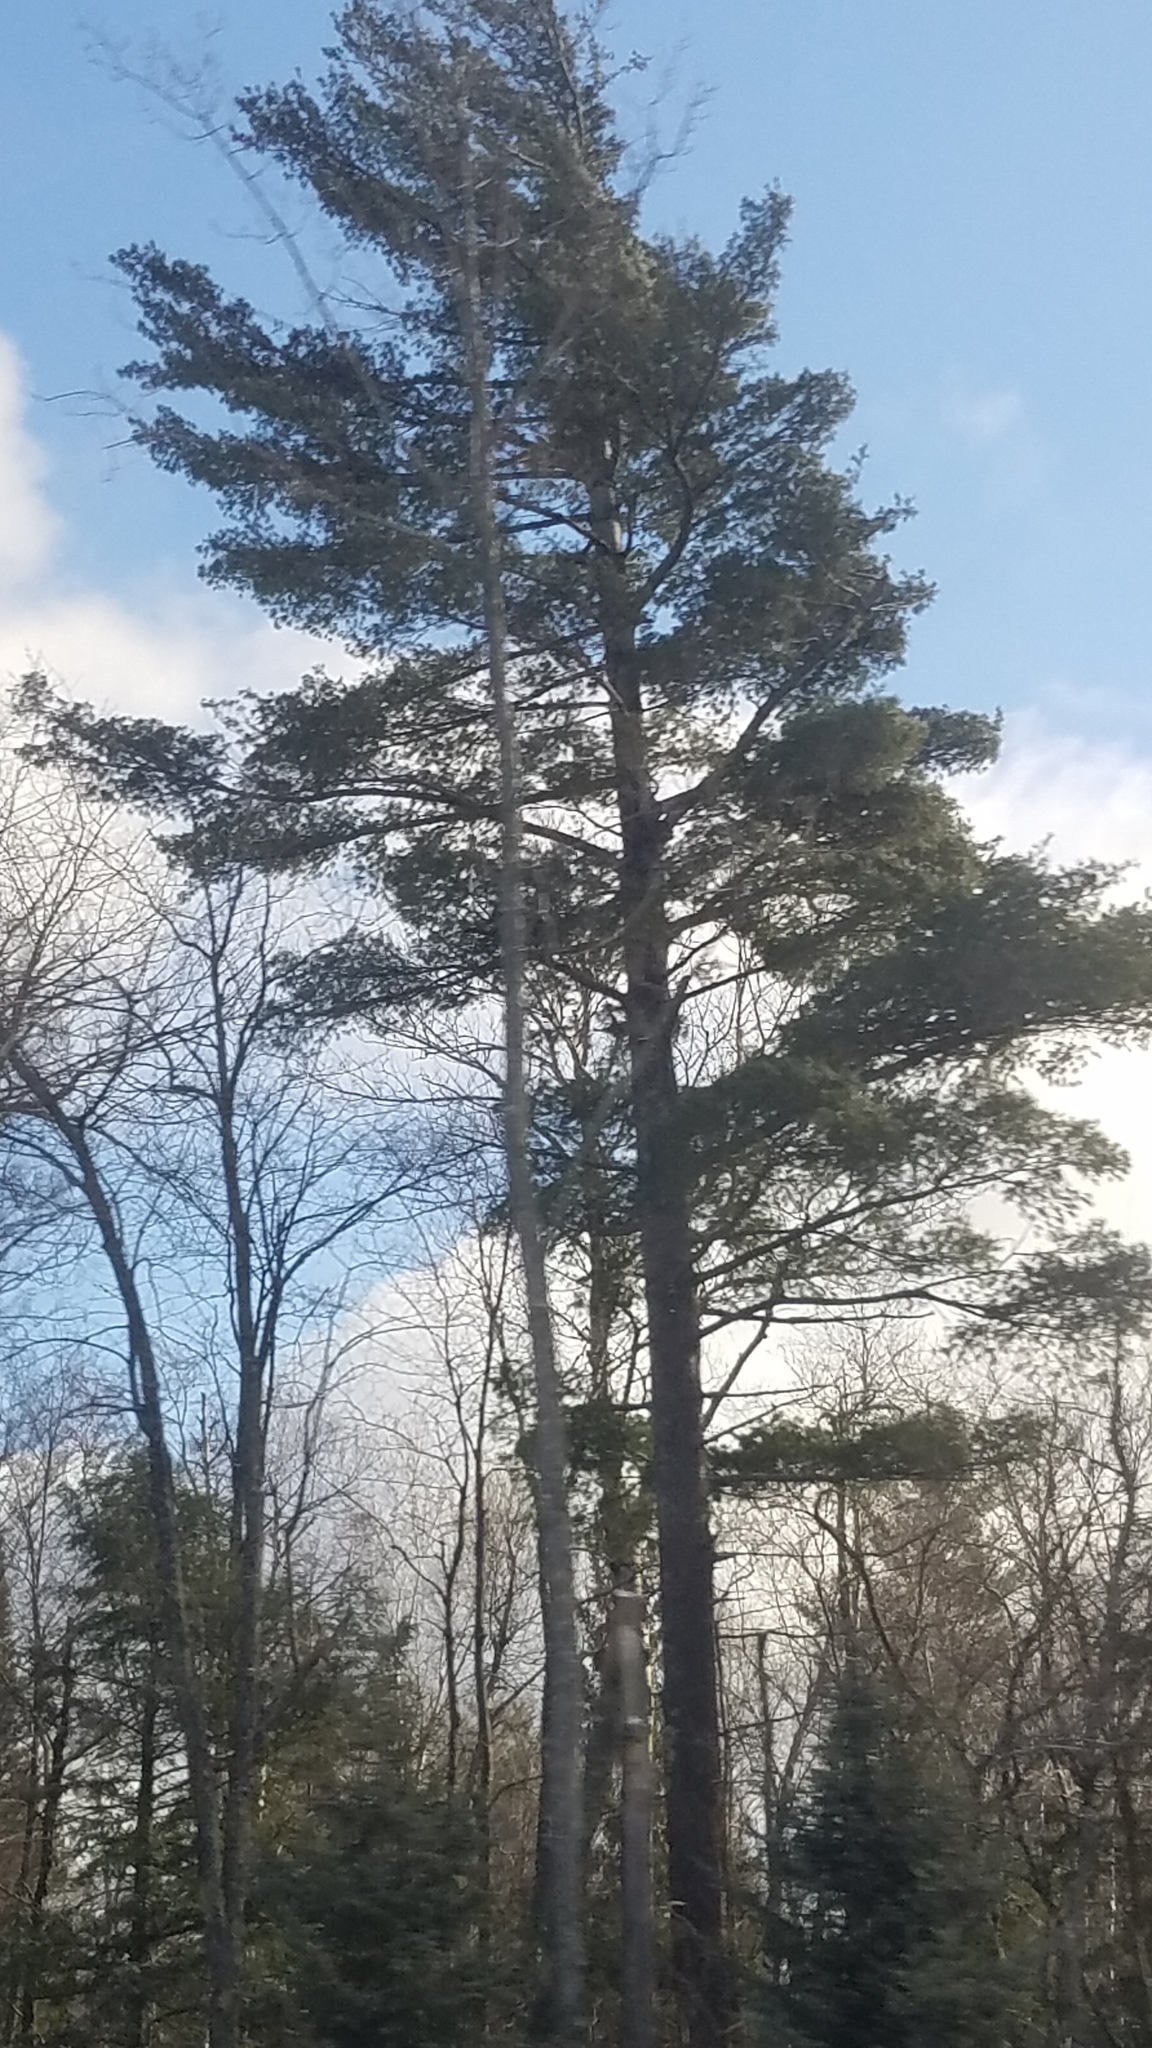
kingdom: Plantae
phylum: Tracheophyta
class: Pinopsida
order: Pinales
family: Pinaceae
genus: Pinus
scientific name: Pinus strobus
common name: Weymouth pine
